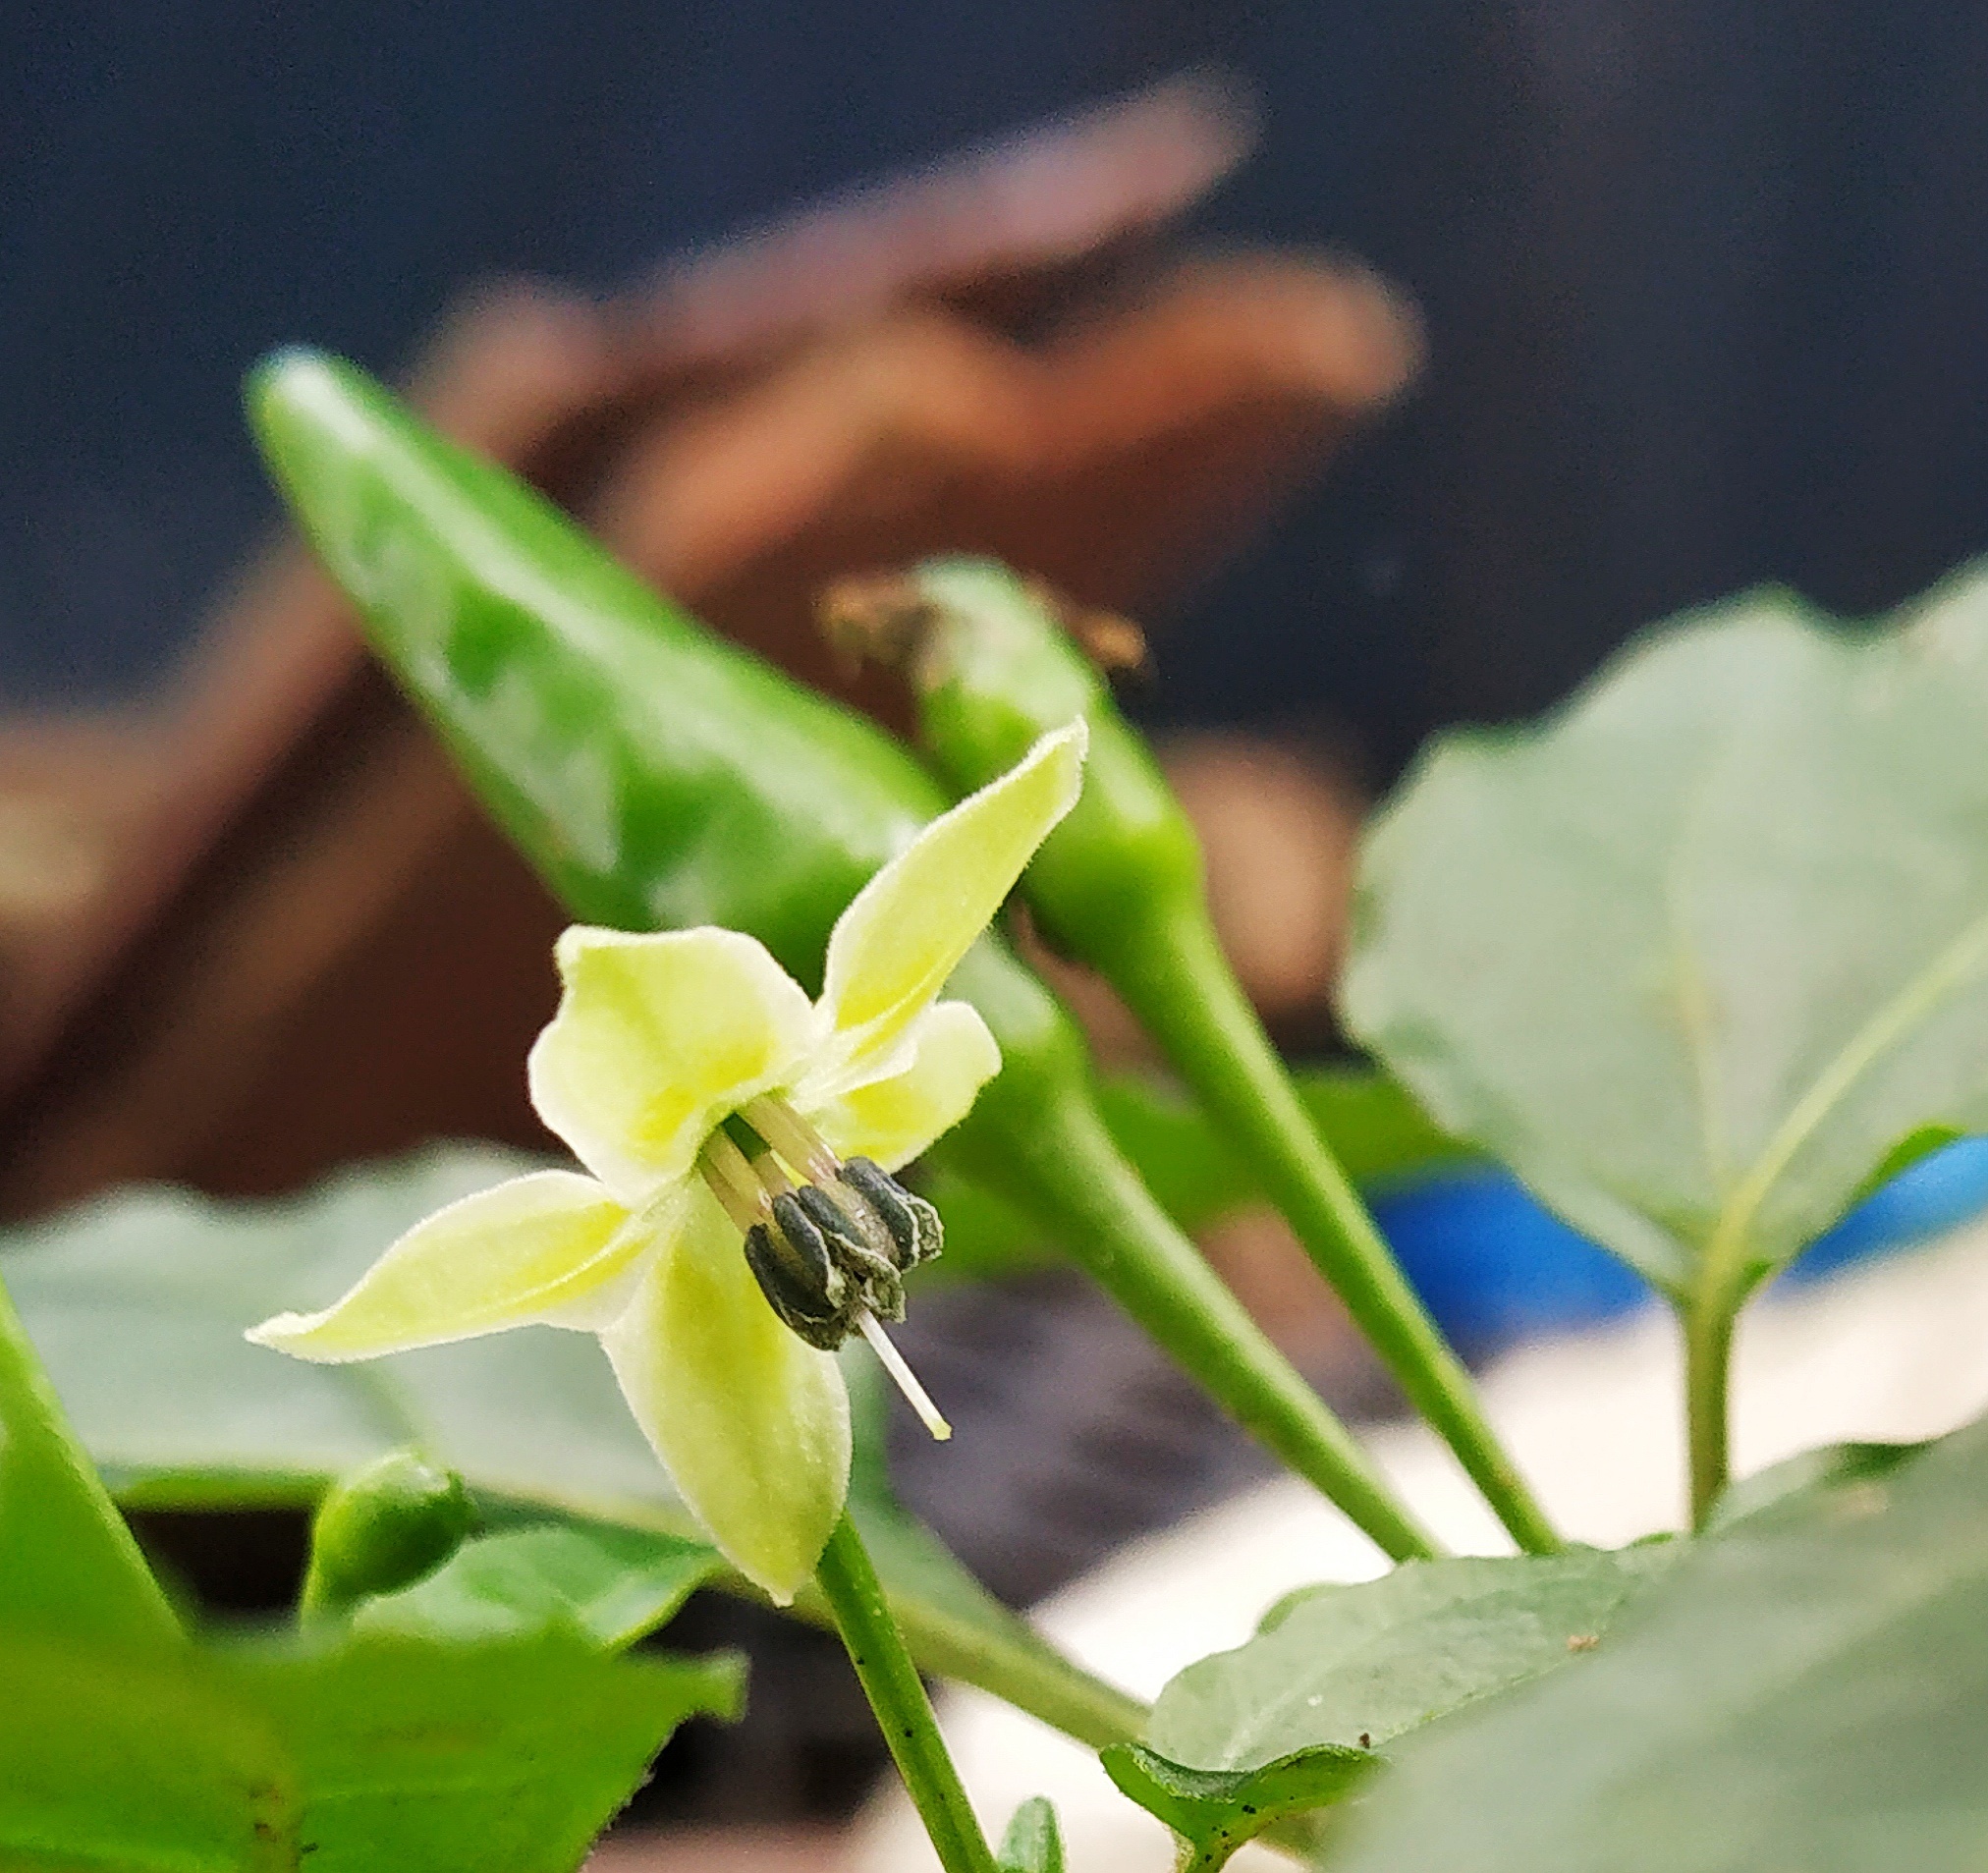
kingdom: Plantae
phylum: Tracheophyta
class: Magnoliopsida
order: Solanales
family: Solanaceae
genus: Capsicum
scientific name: Capsicum annuum
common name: Sweet pepper
